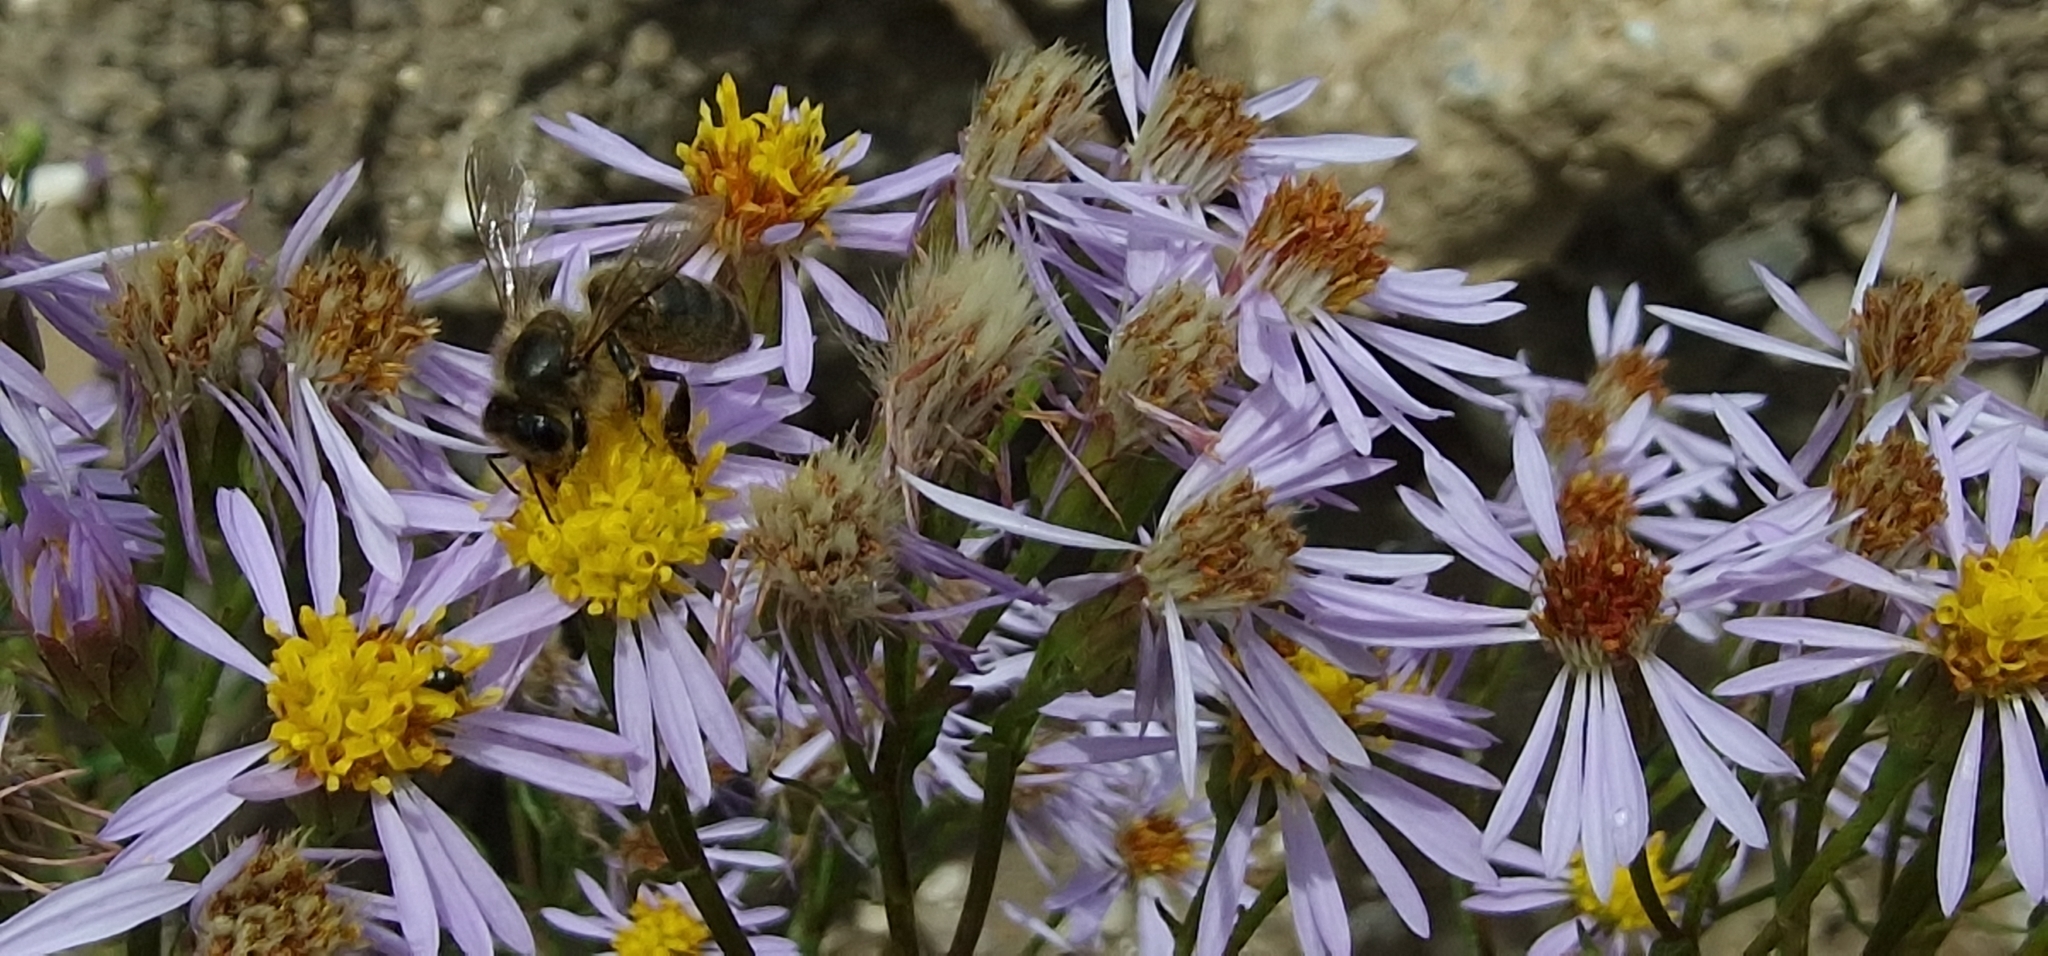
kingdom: Animalia
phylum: Arthropoda
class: Insecta
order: Hymenoptera
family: Apidae
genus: Apis
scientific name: Apis mellifera
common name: Honey bee
